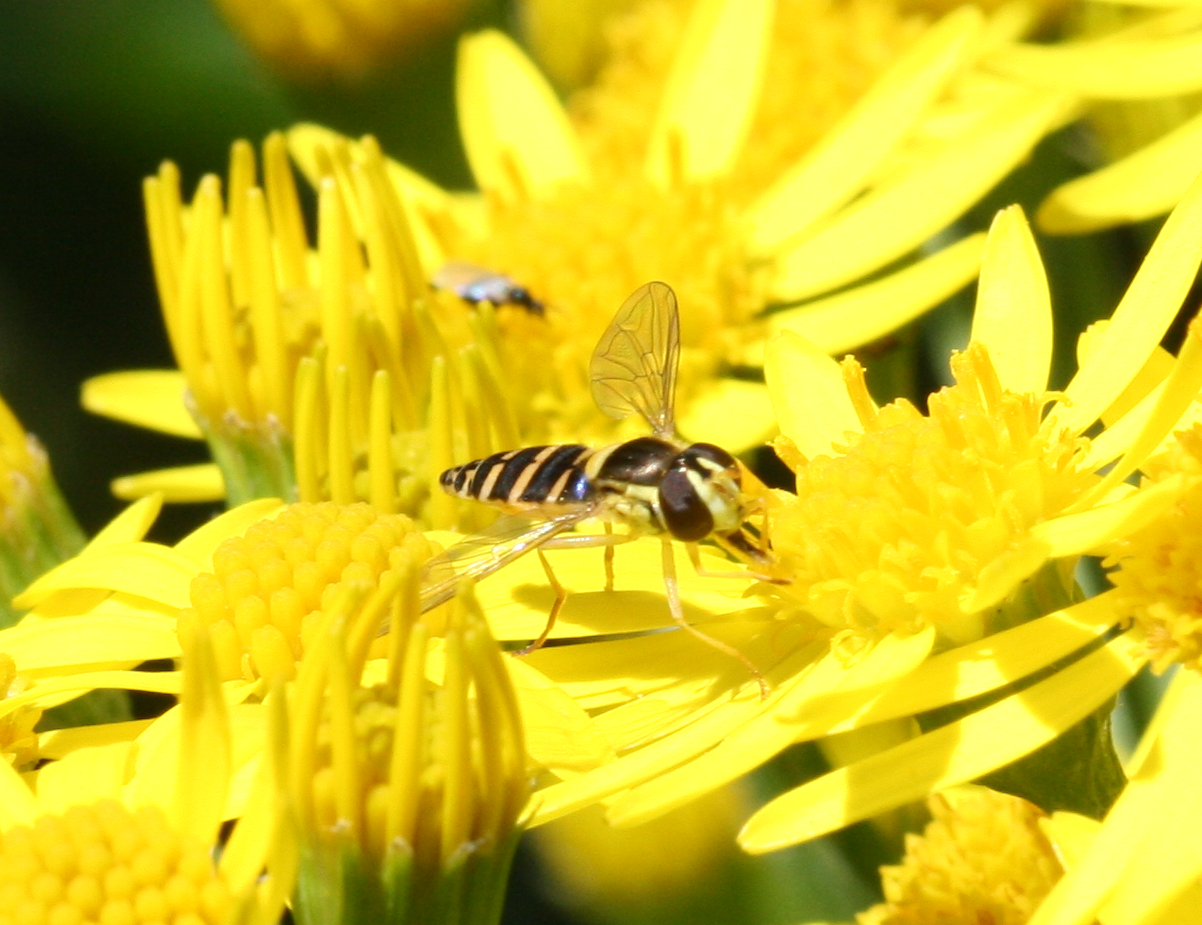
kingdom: Animalia
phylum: Arthropoda
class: Insecta
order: Diptera
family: Syrphidae
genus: Sphaerophoria
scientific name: Sphaerophoria
